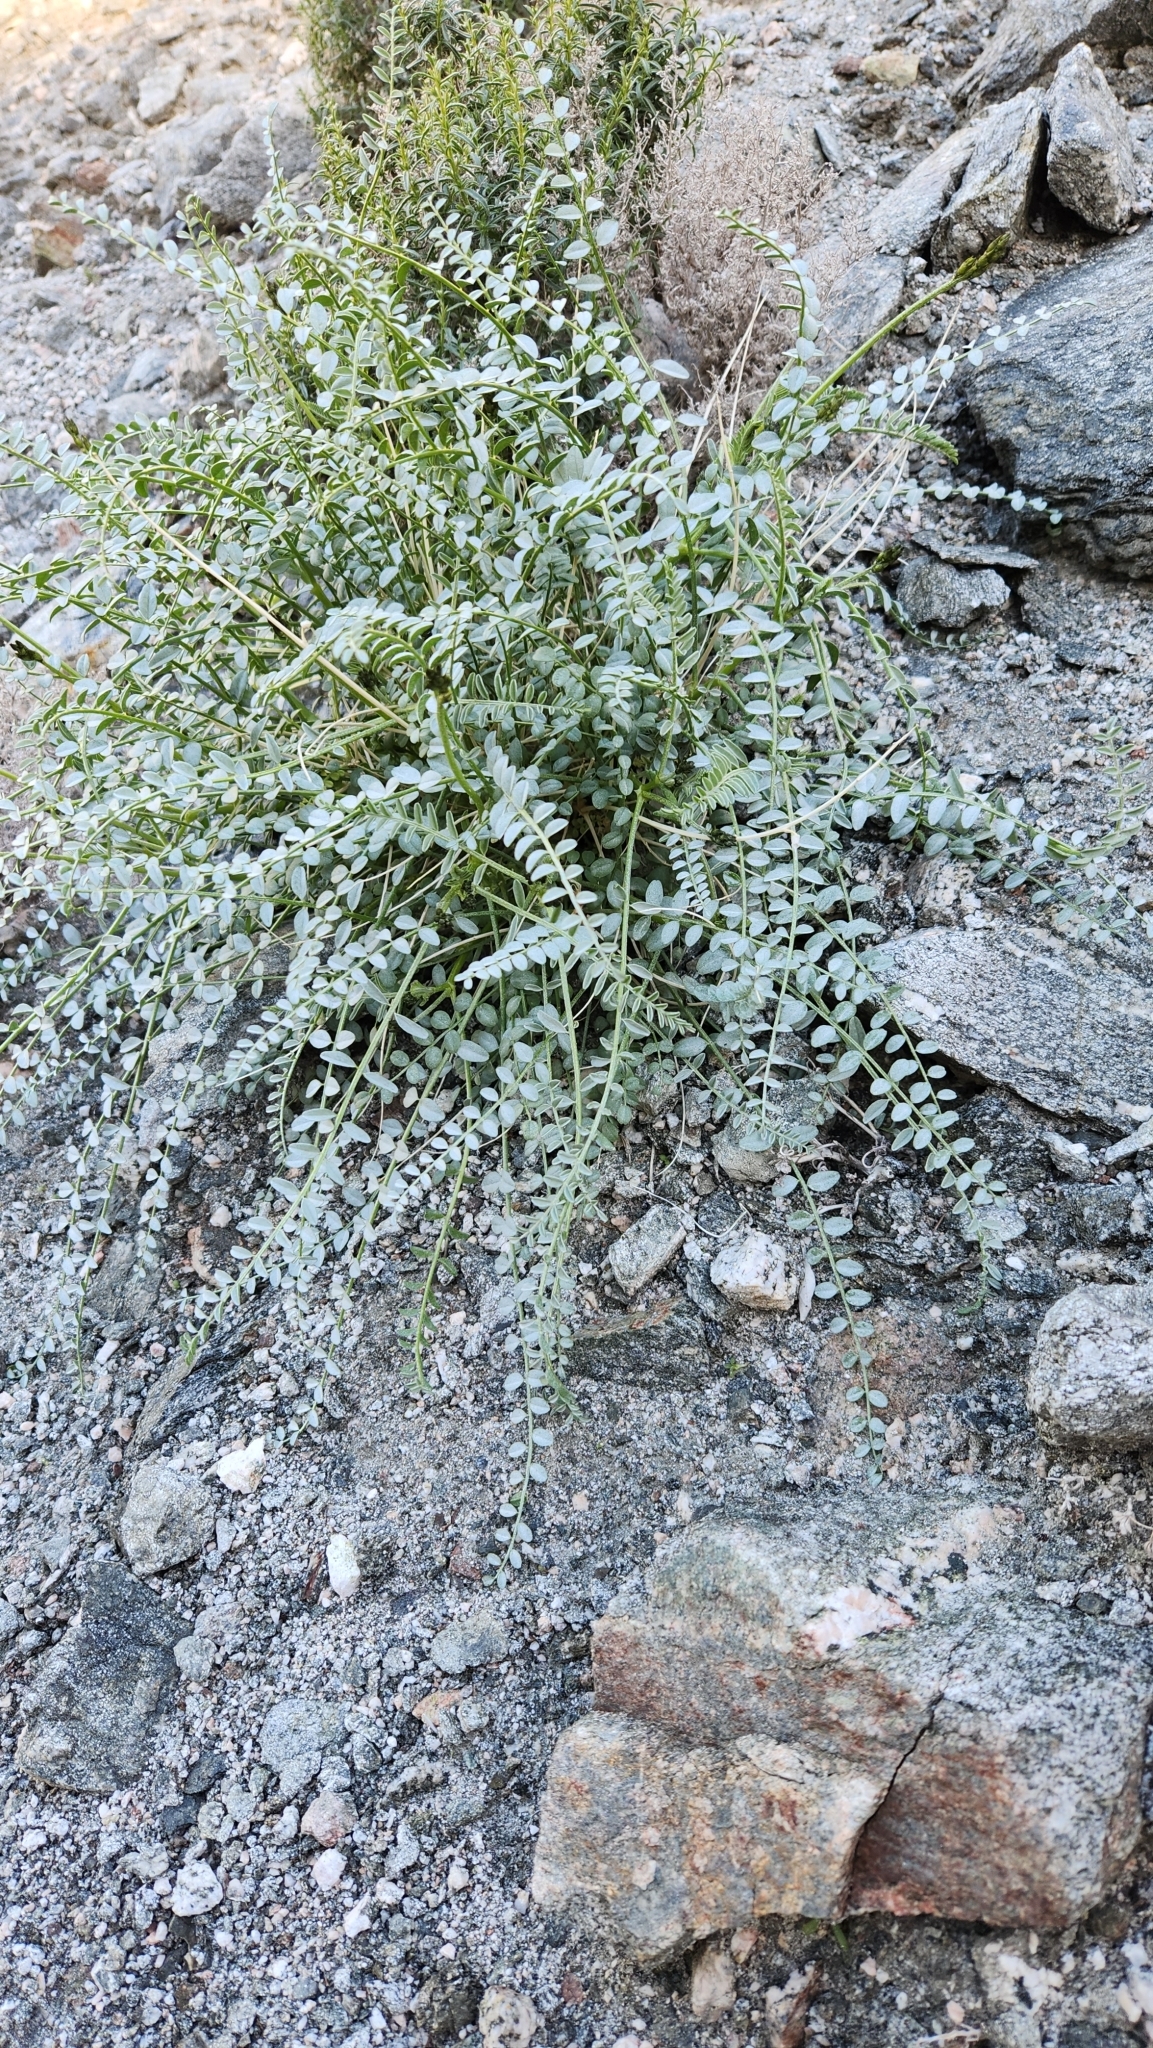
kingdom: Plantae
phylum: Tracheophyta
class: Magnoliopsida
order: Fabales
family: Fabaceae
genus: Astragalus
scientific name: Astragalus tricarinatus
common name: Triple-rib milk-vetch
